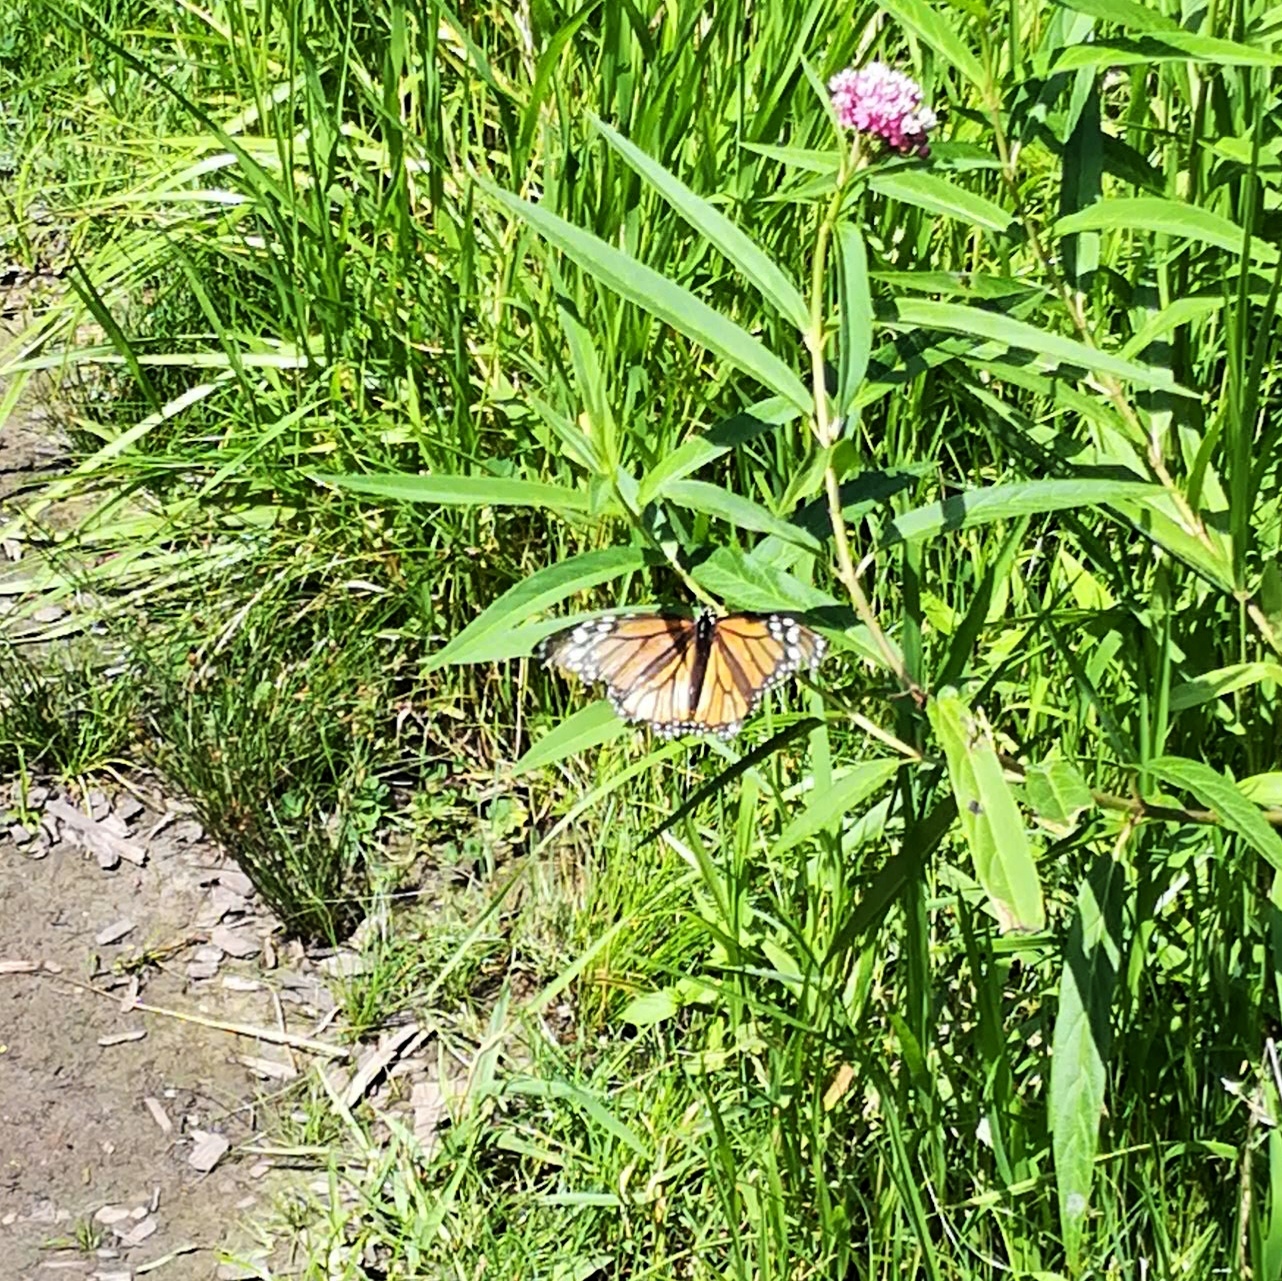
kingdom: Animalia
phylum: Arthropoda
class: Insecta
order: Lepidoptera
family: Nymphalidae
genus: Danaus
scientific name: Danaus plexippus
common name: Monarch
